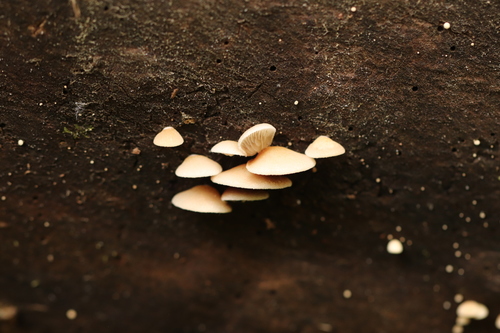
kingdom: Fungi
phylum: Basidiomycota
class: Agaricomycetes
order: Agaricales
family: Crepidotaceae
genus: Crepidotus
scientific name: Crepidotus mollis
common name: Peeling oysterling
